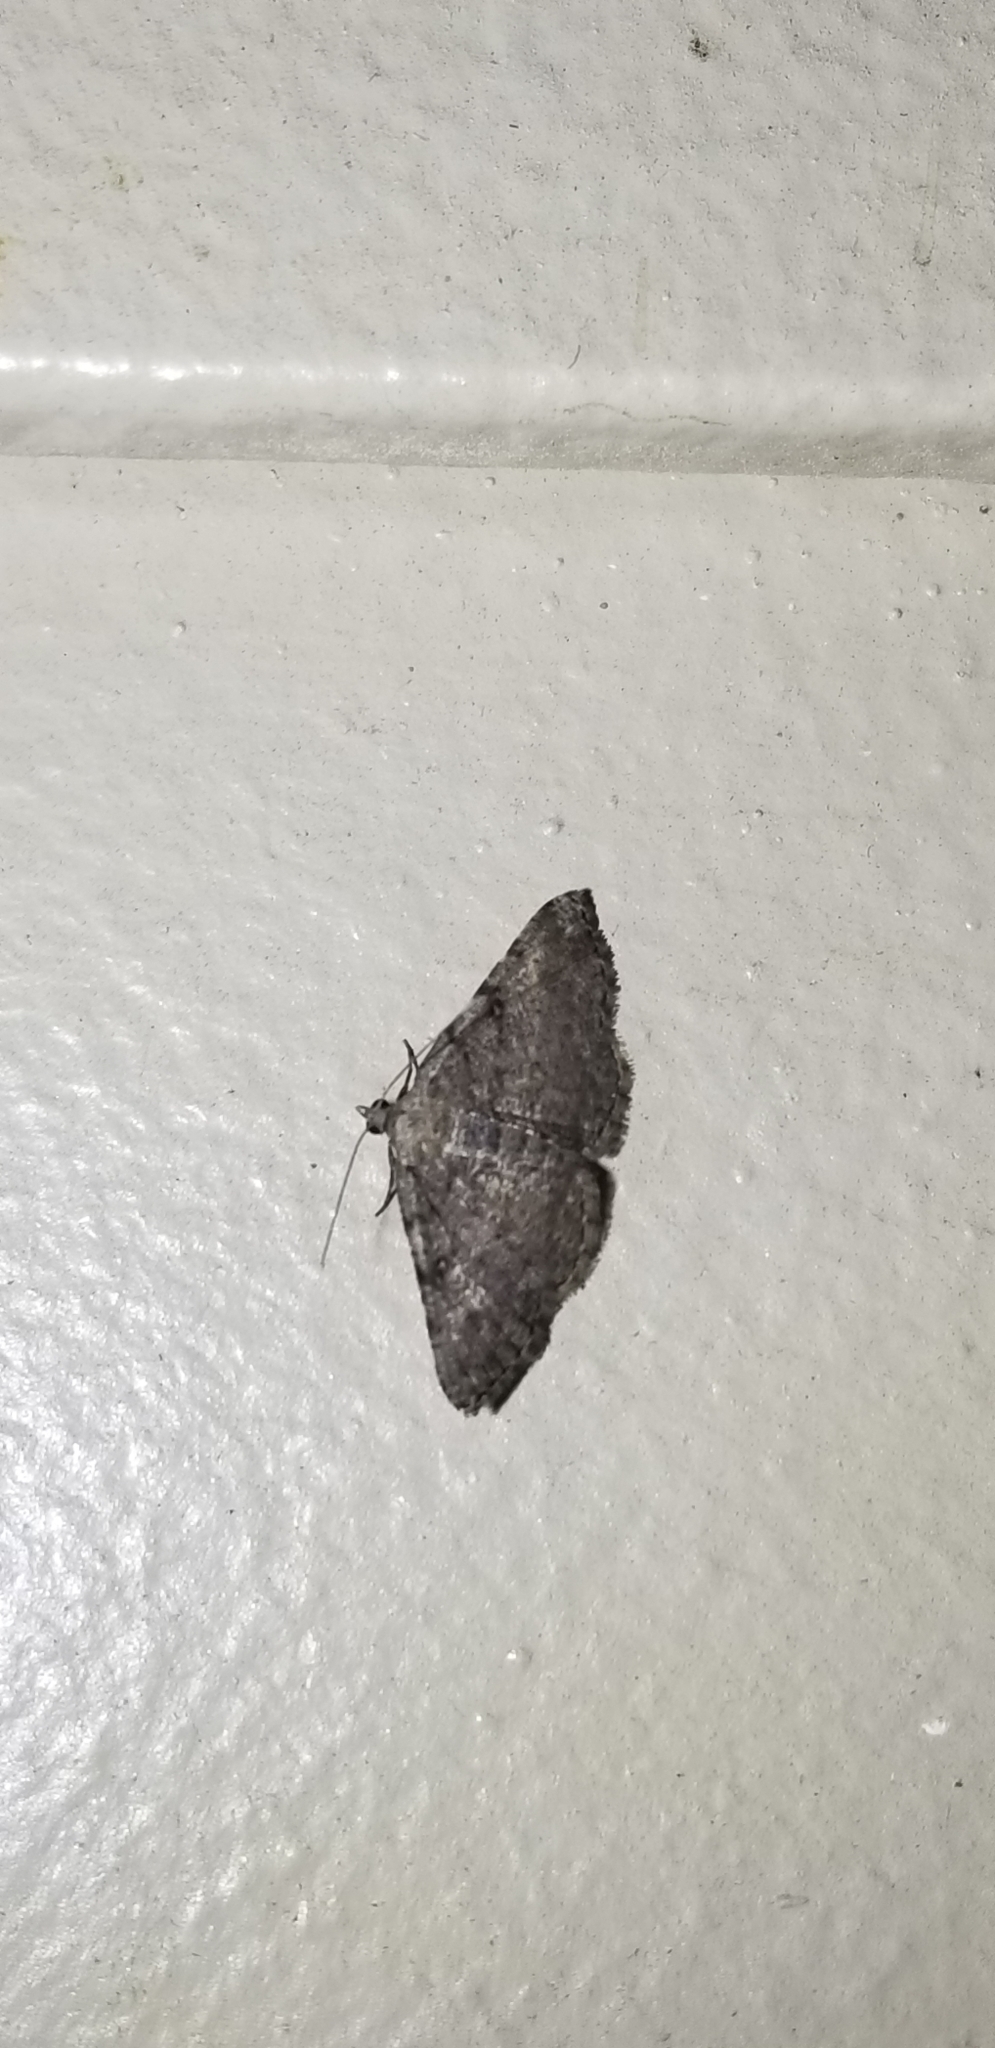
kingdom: Animalia
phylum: Arthropoda
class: Insecta
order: Lepidoptera
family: Geometridae
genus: Digrammia
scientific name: Digrammia gnophosaria
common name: Hollow-spotted angle
